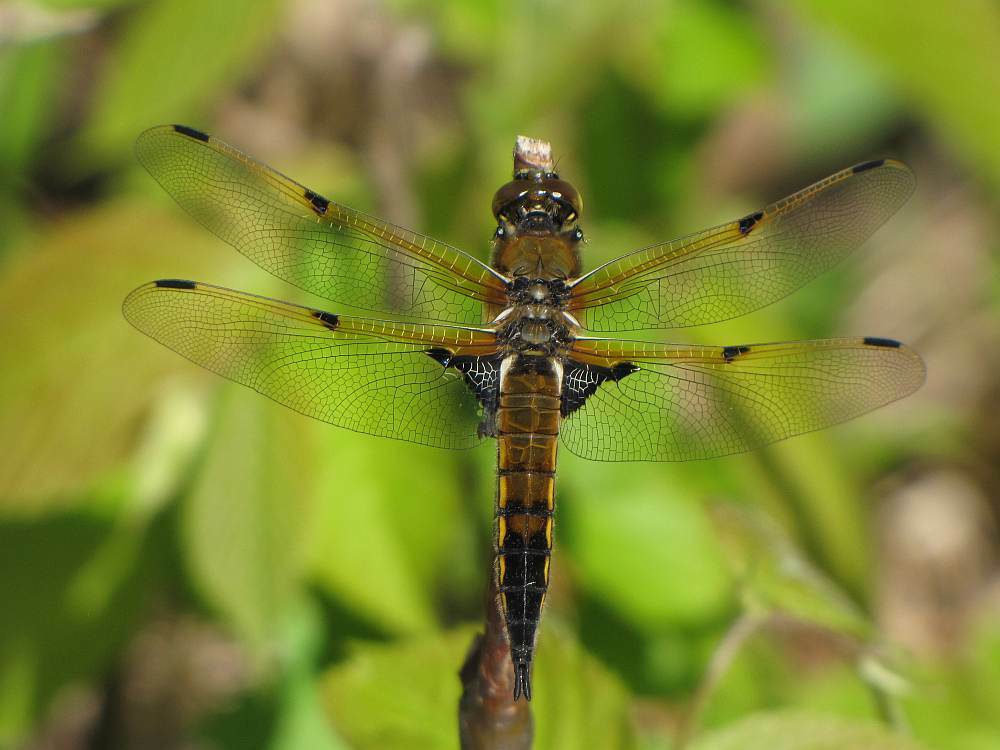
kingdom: Animalia
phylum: Arthropoda
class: Insecta
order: Odonata
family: Libellulidae
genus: Libellula
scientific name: Libellula quadrimaculata
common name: Four-spotted chaser
